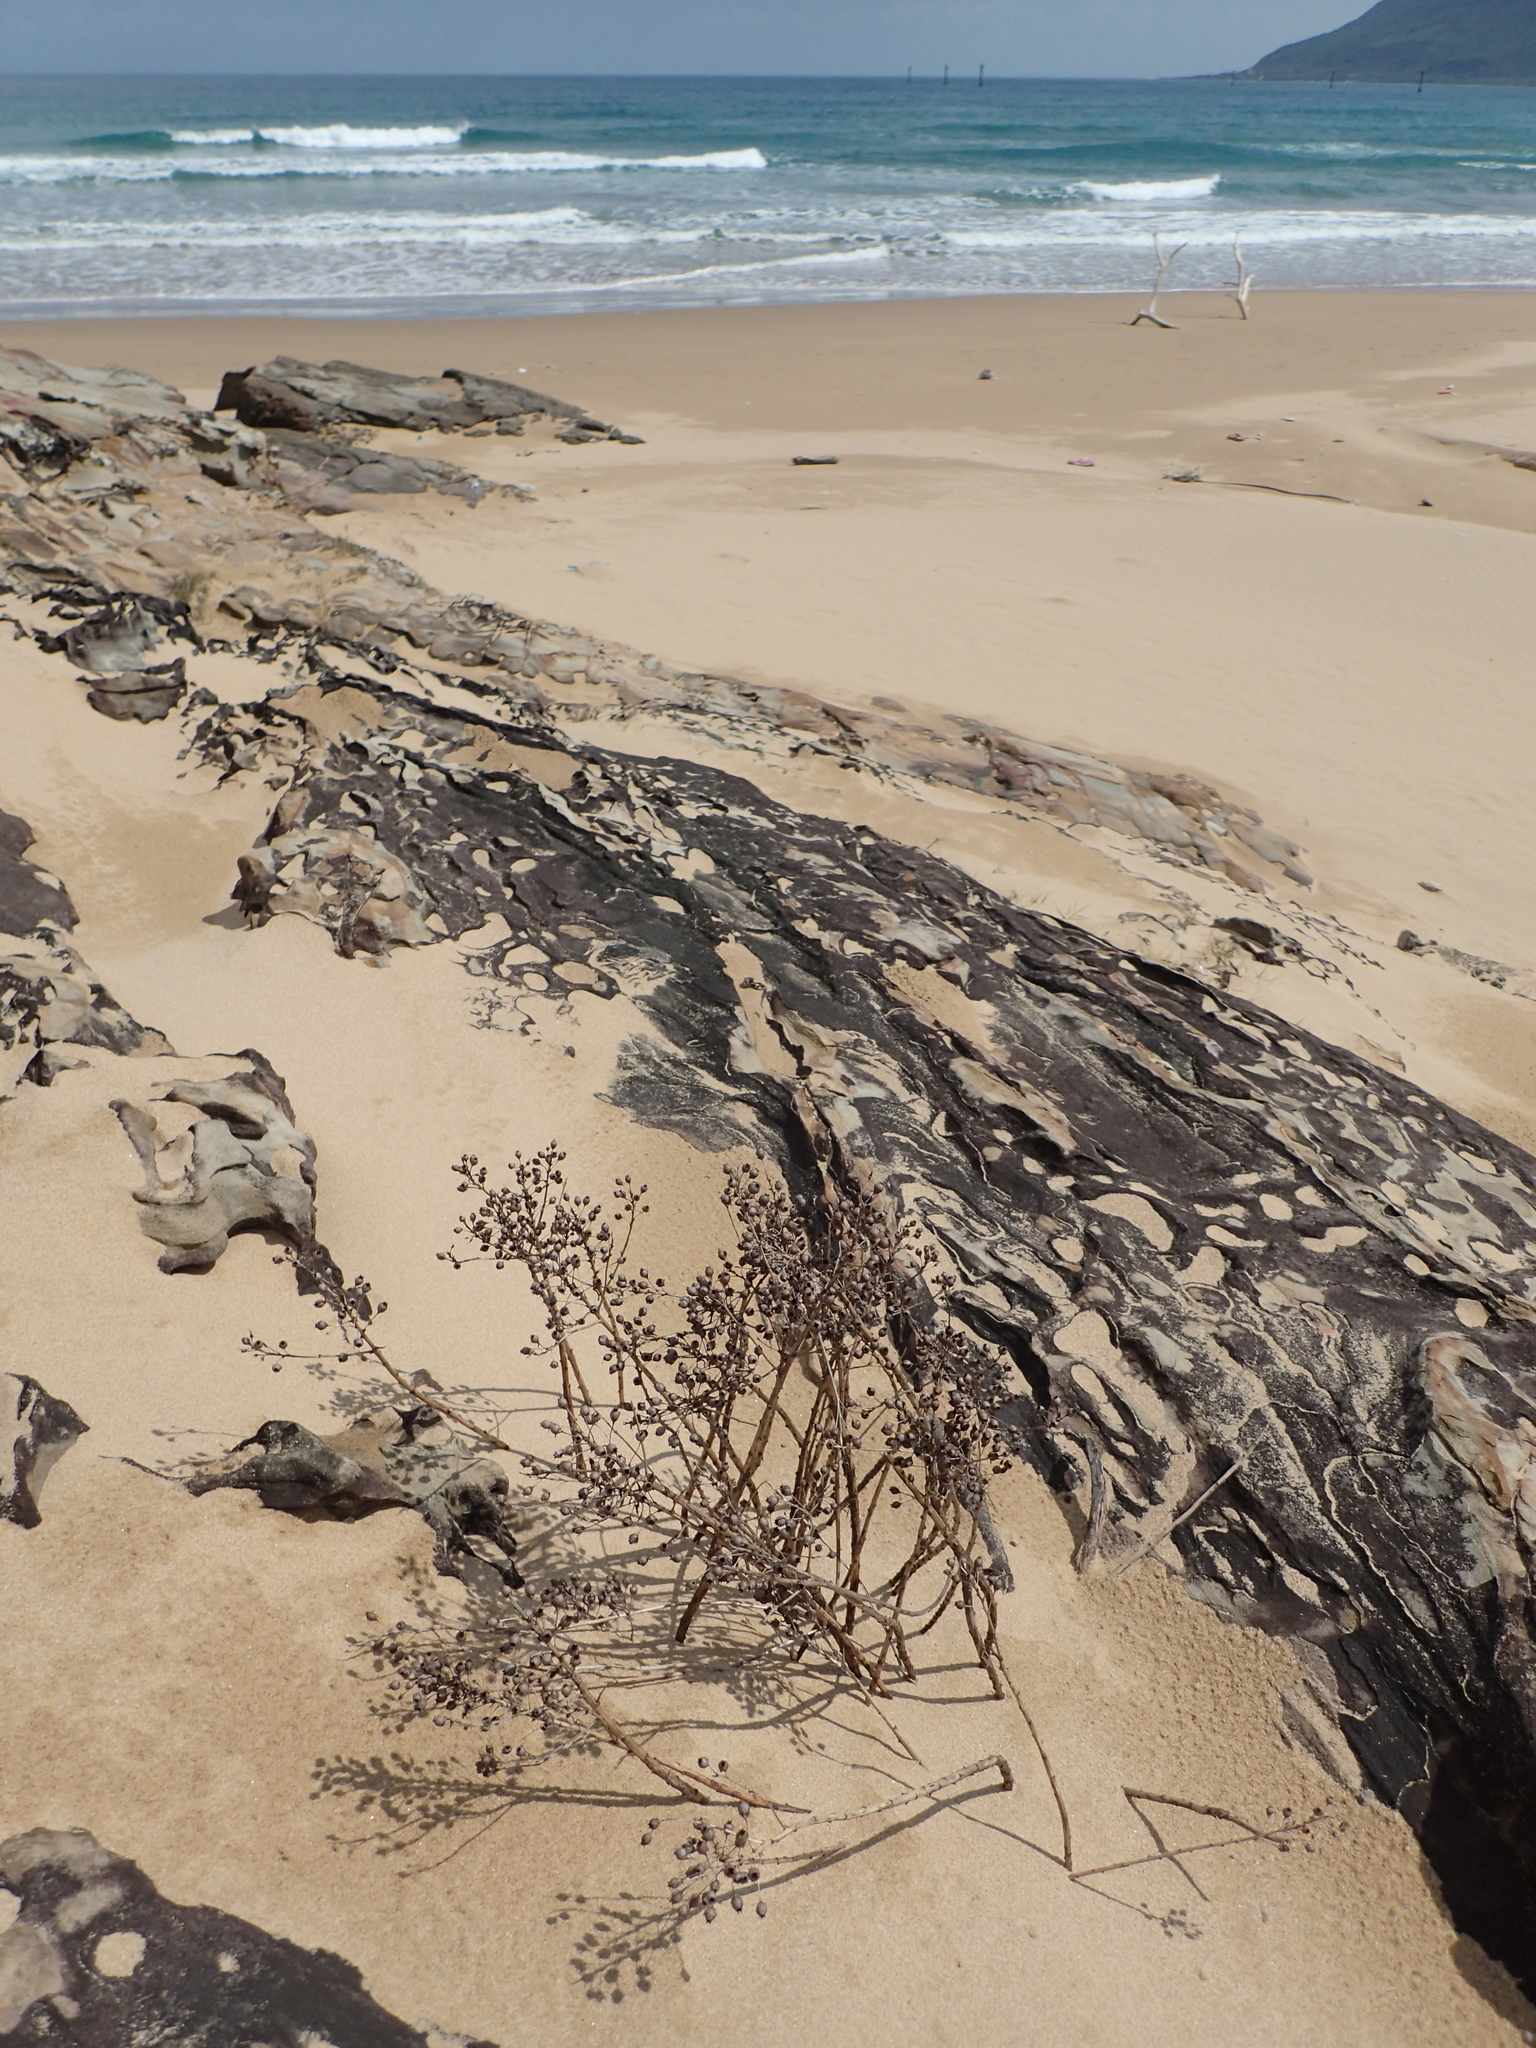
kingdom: Plantae
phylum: Tracheophyta
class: Magnoliopsida
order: Ericales
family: Primulaceae
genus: Lysimachia
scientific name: Lysimachia mauritiana
